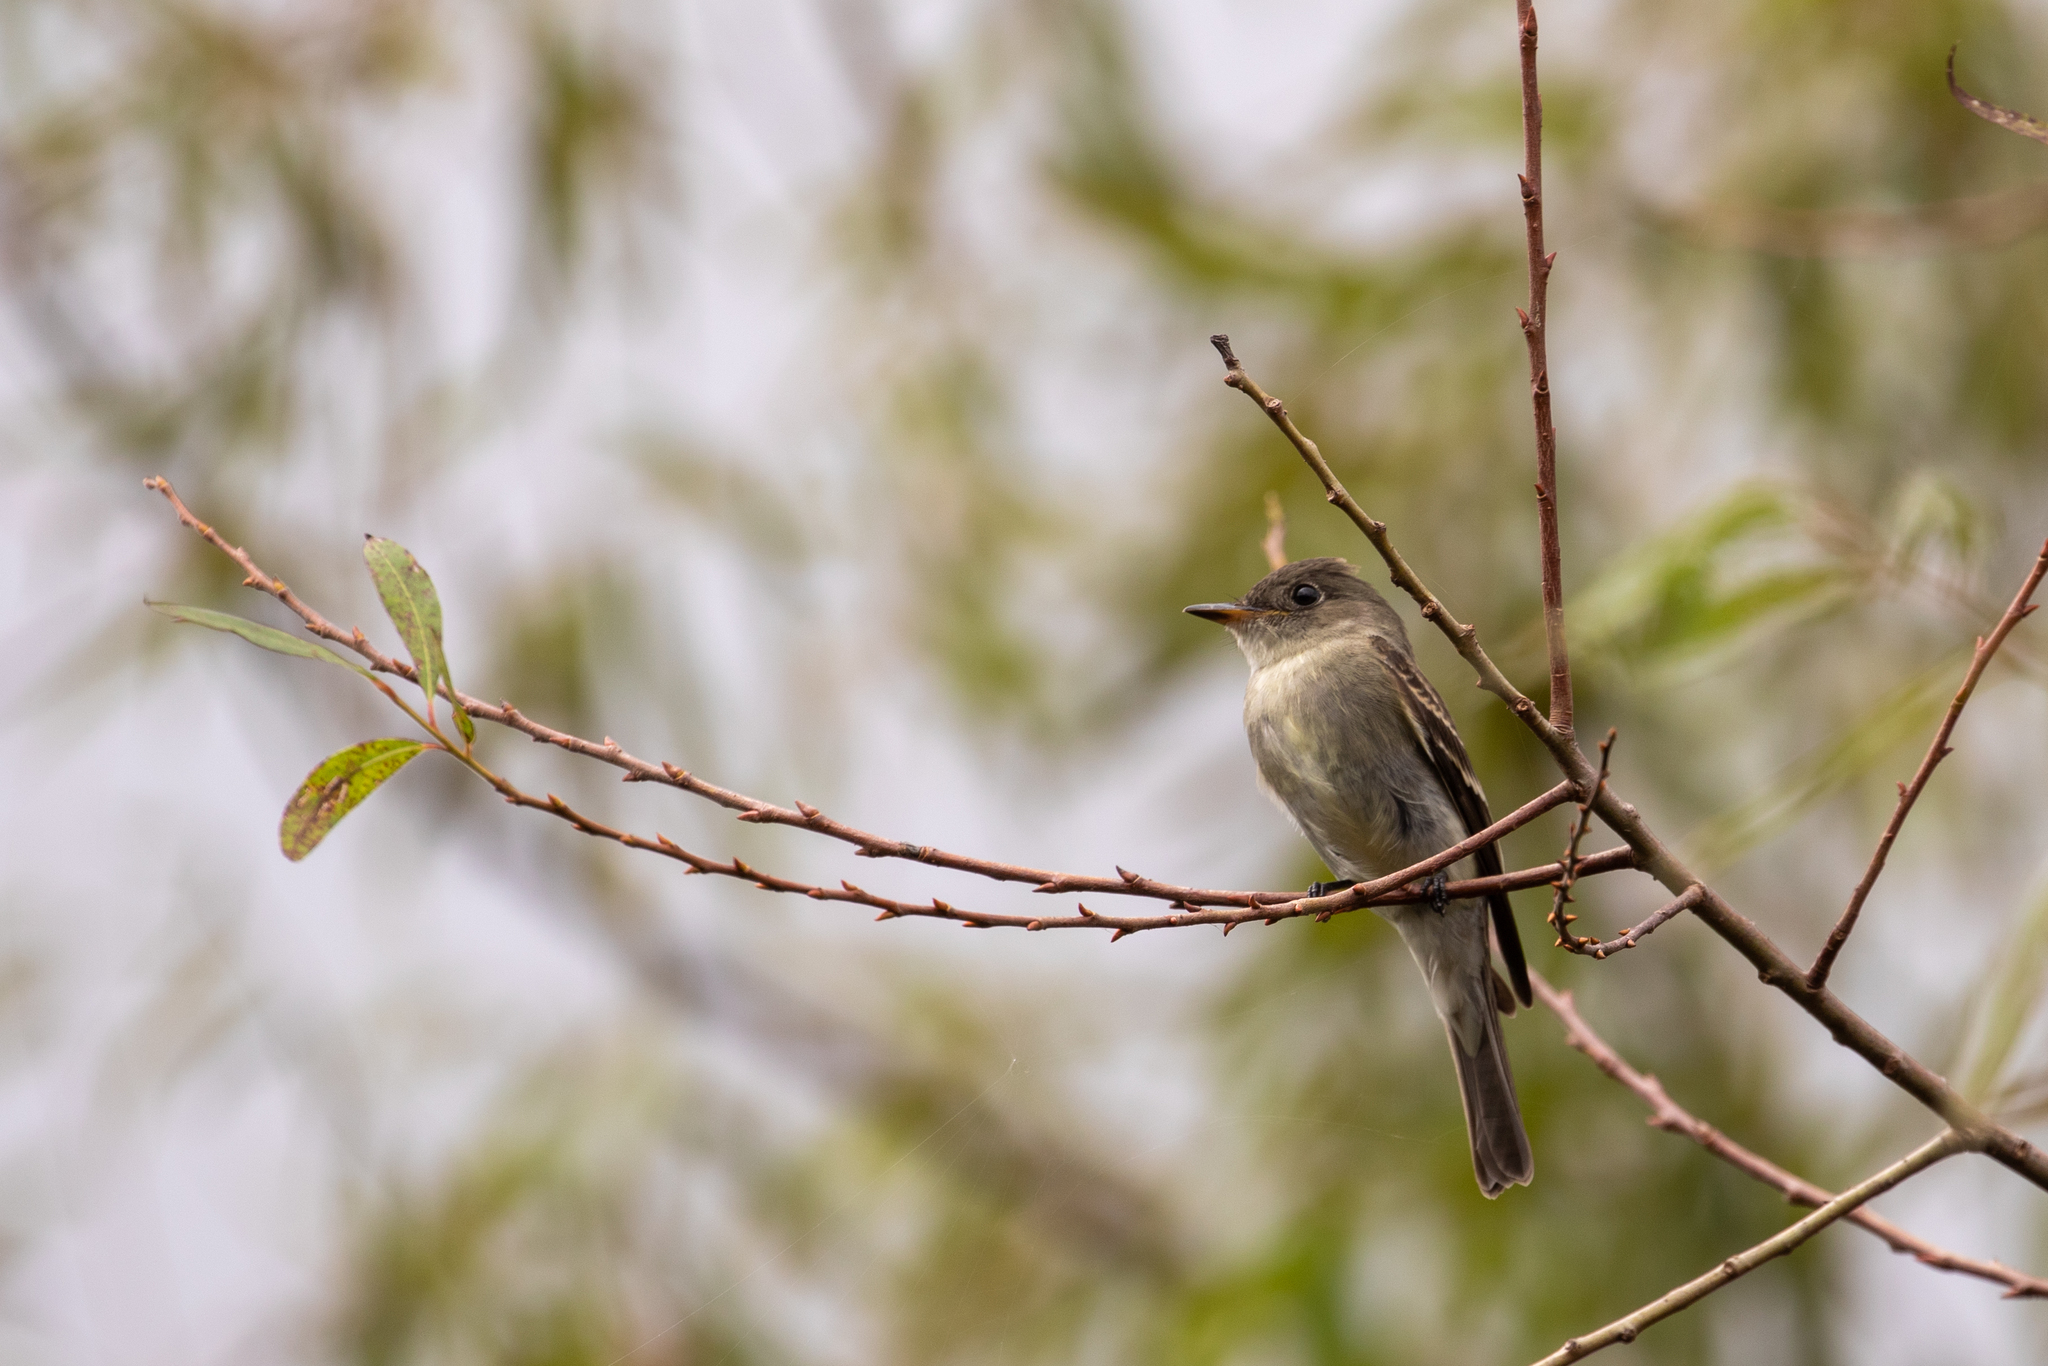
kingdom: Animalia
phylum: Chordata
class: Aves
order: Passeriformes
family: Tyrannidae
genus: Contopus
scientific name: Contopus virens
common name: Eastern wood-pewee
